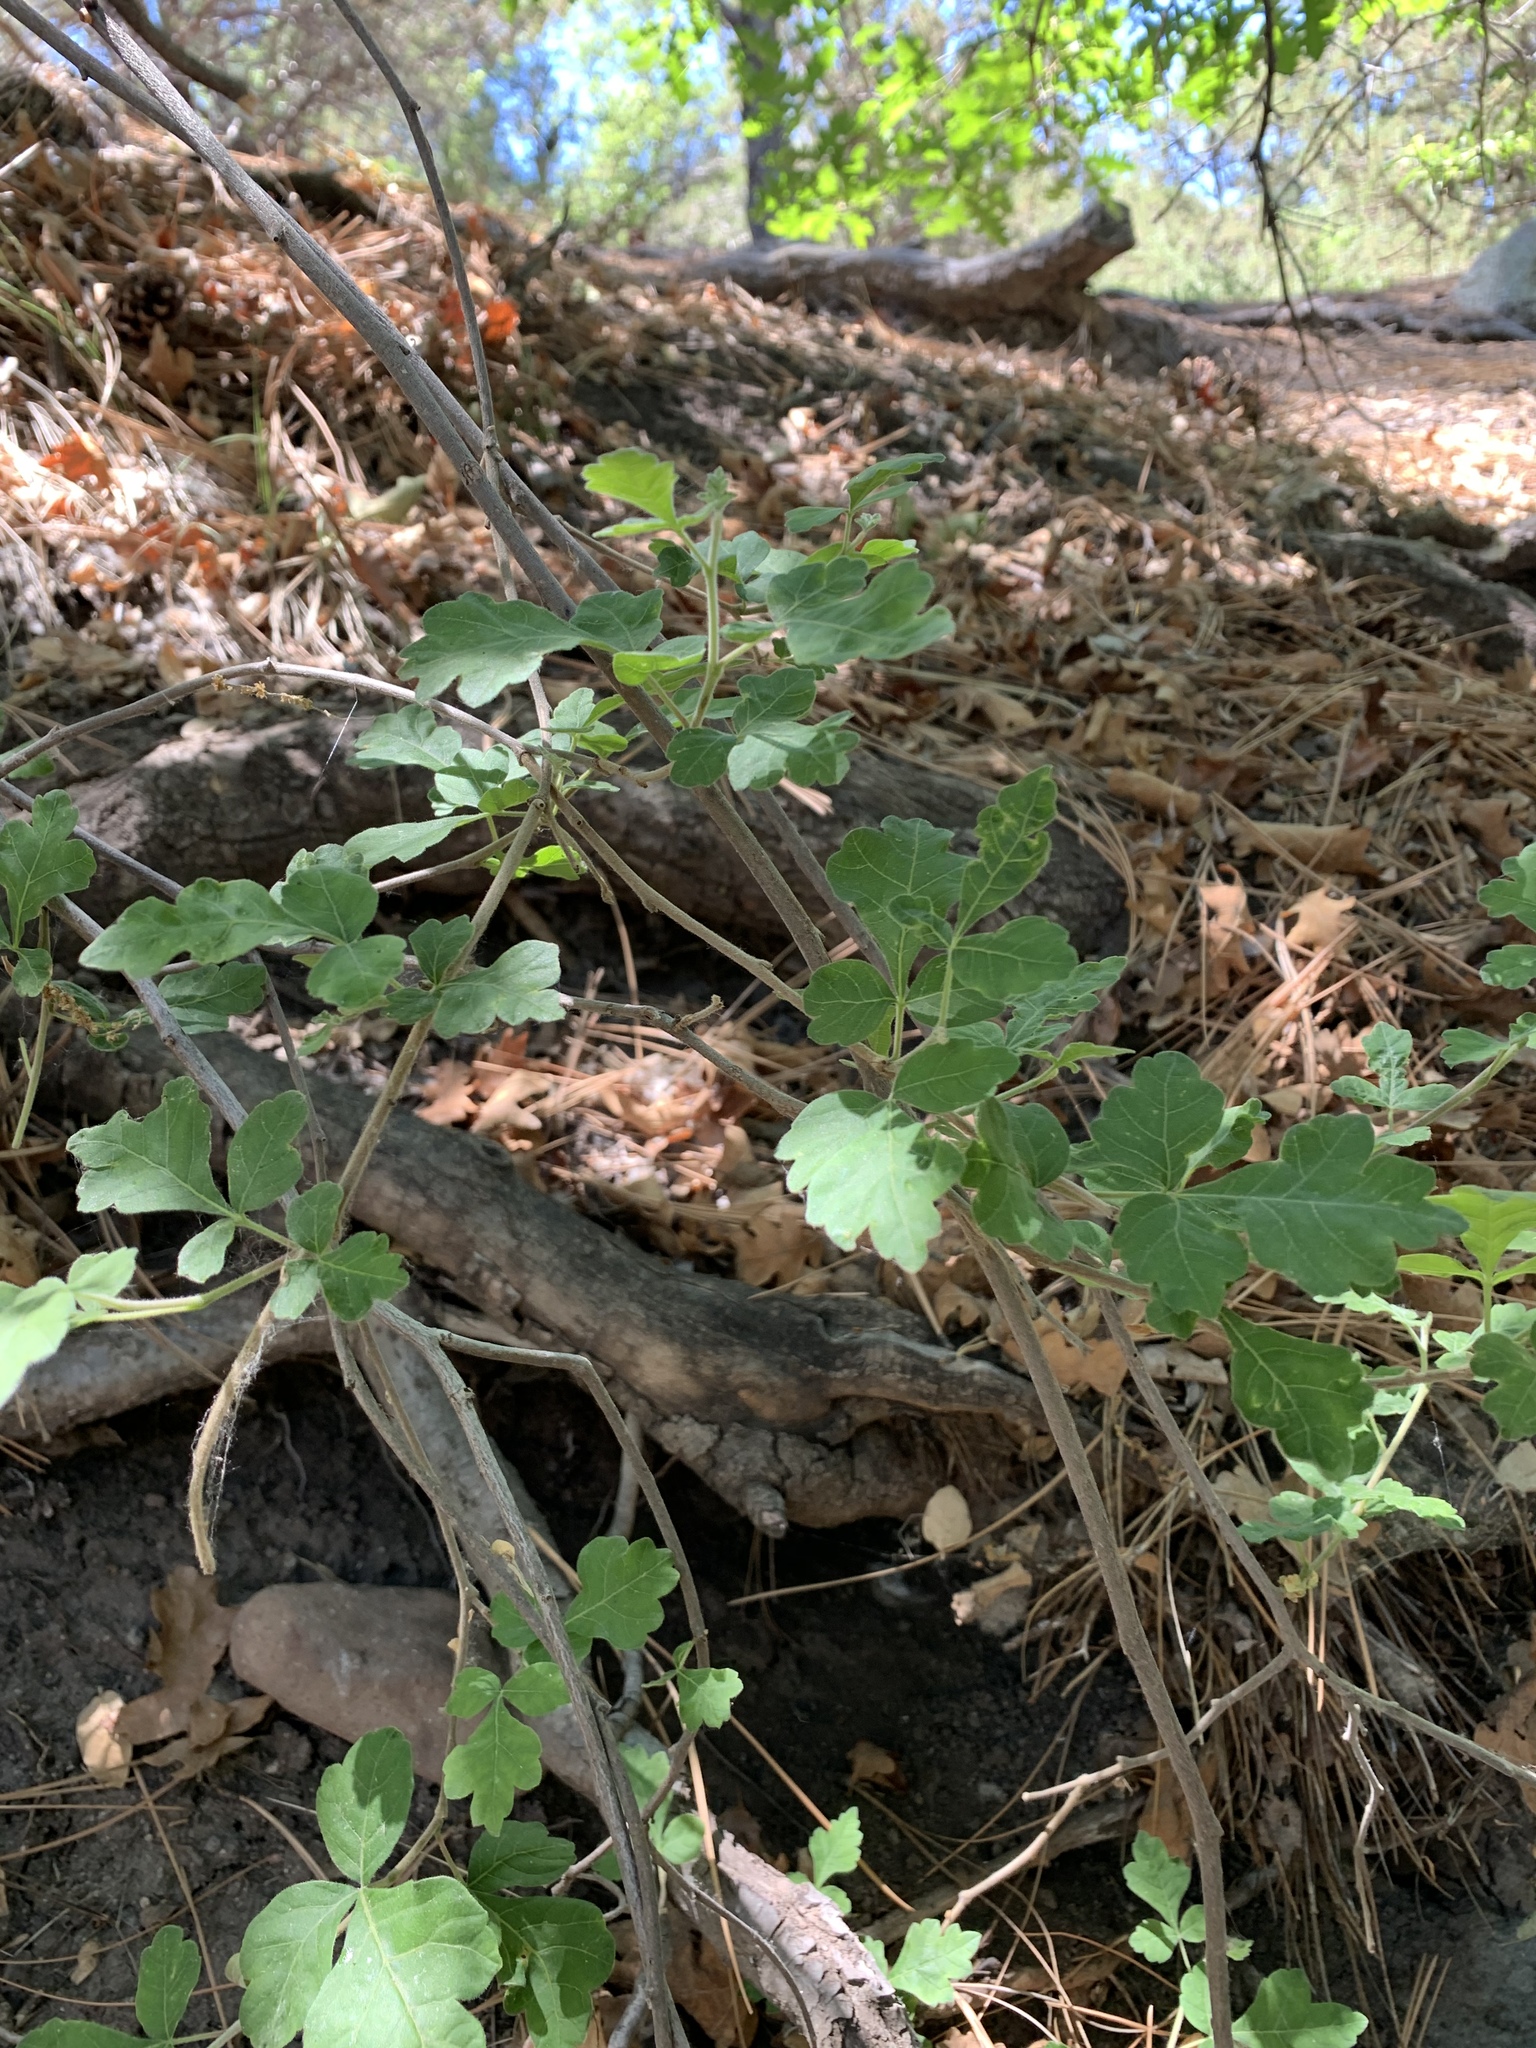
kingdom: Plantae
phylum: Tracheophyta
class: Magnoliopsida
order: Sapindales
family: Anacardiaceae
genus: Rhus
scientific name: Rhus aromatica
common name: Aromatic sumac
